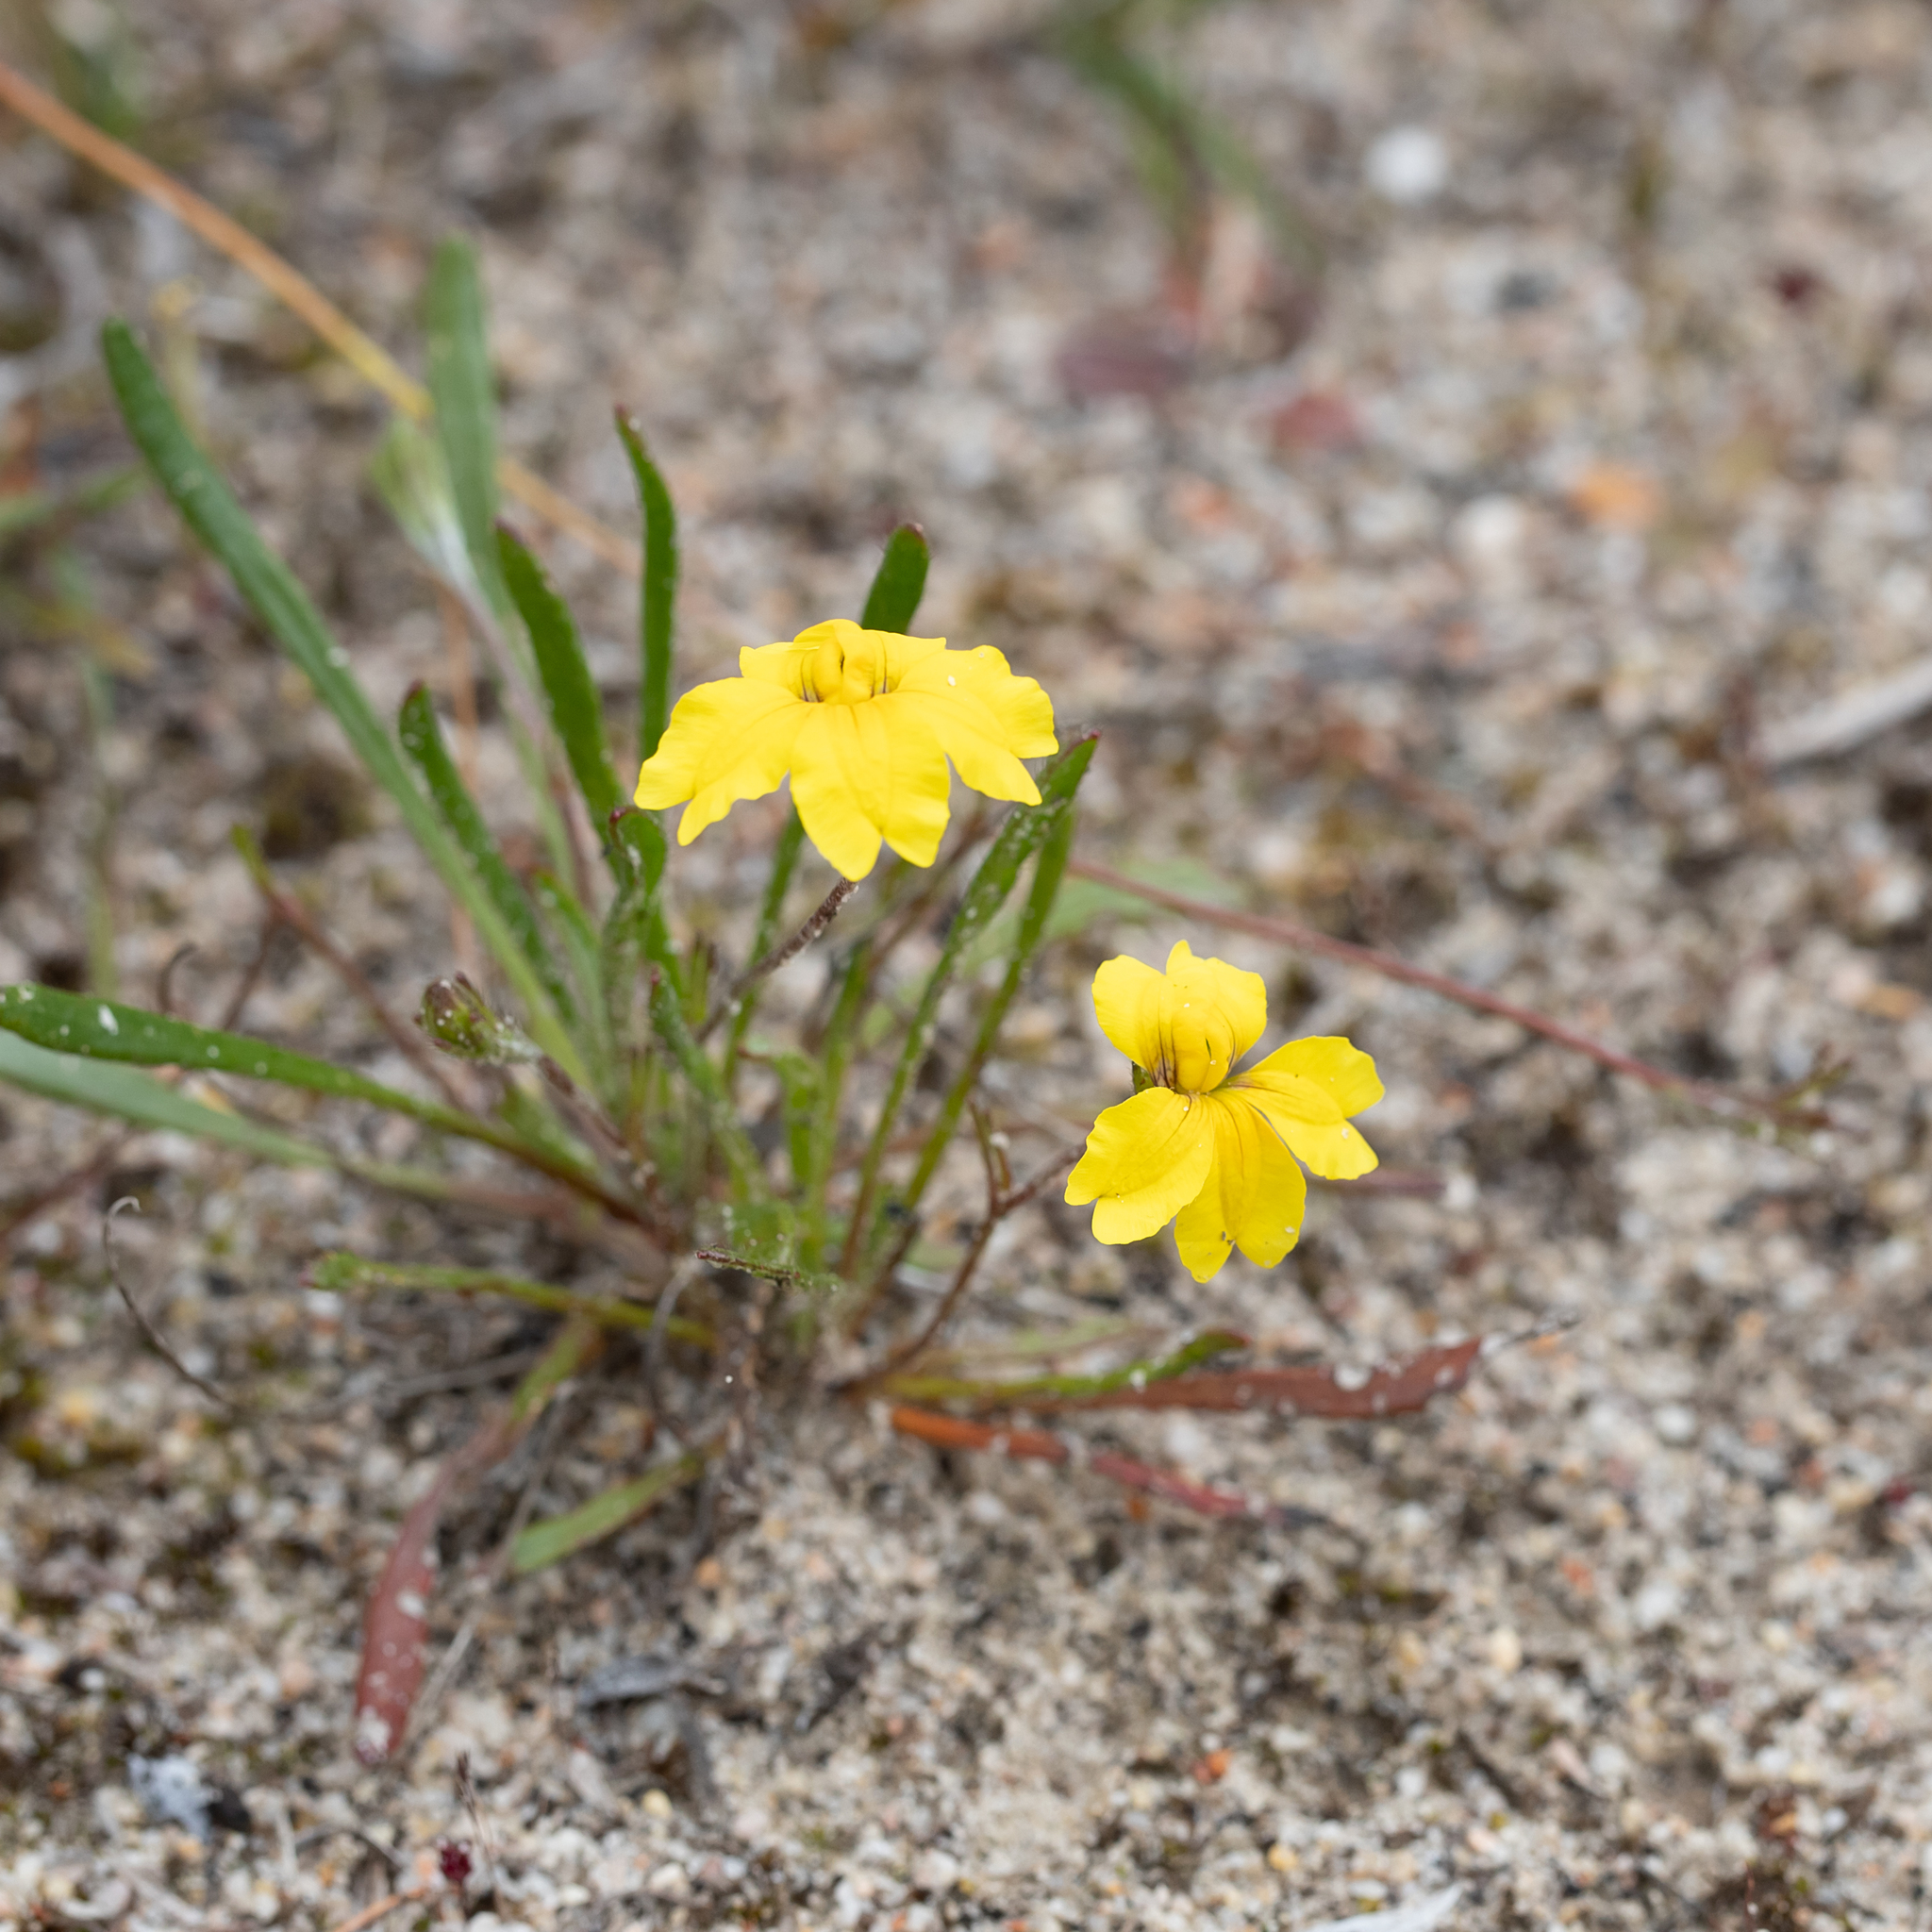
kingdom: Plantae
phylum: Tracheophyta
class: Magnoliopsida
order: Asterales
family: Goodeniaceae
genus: Goodenia
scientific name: Goodenia geniculata
